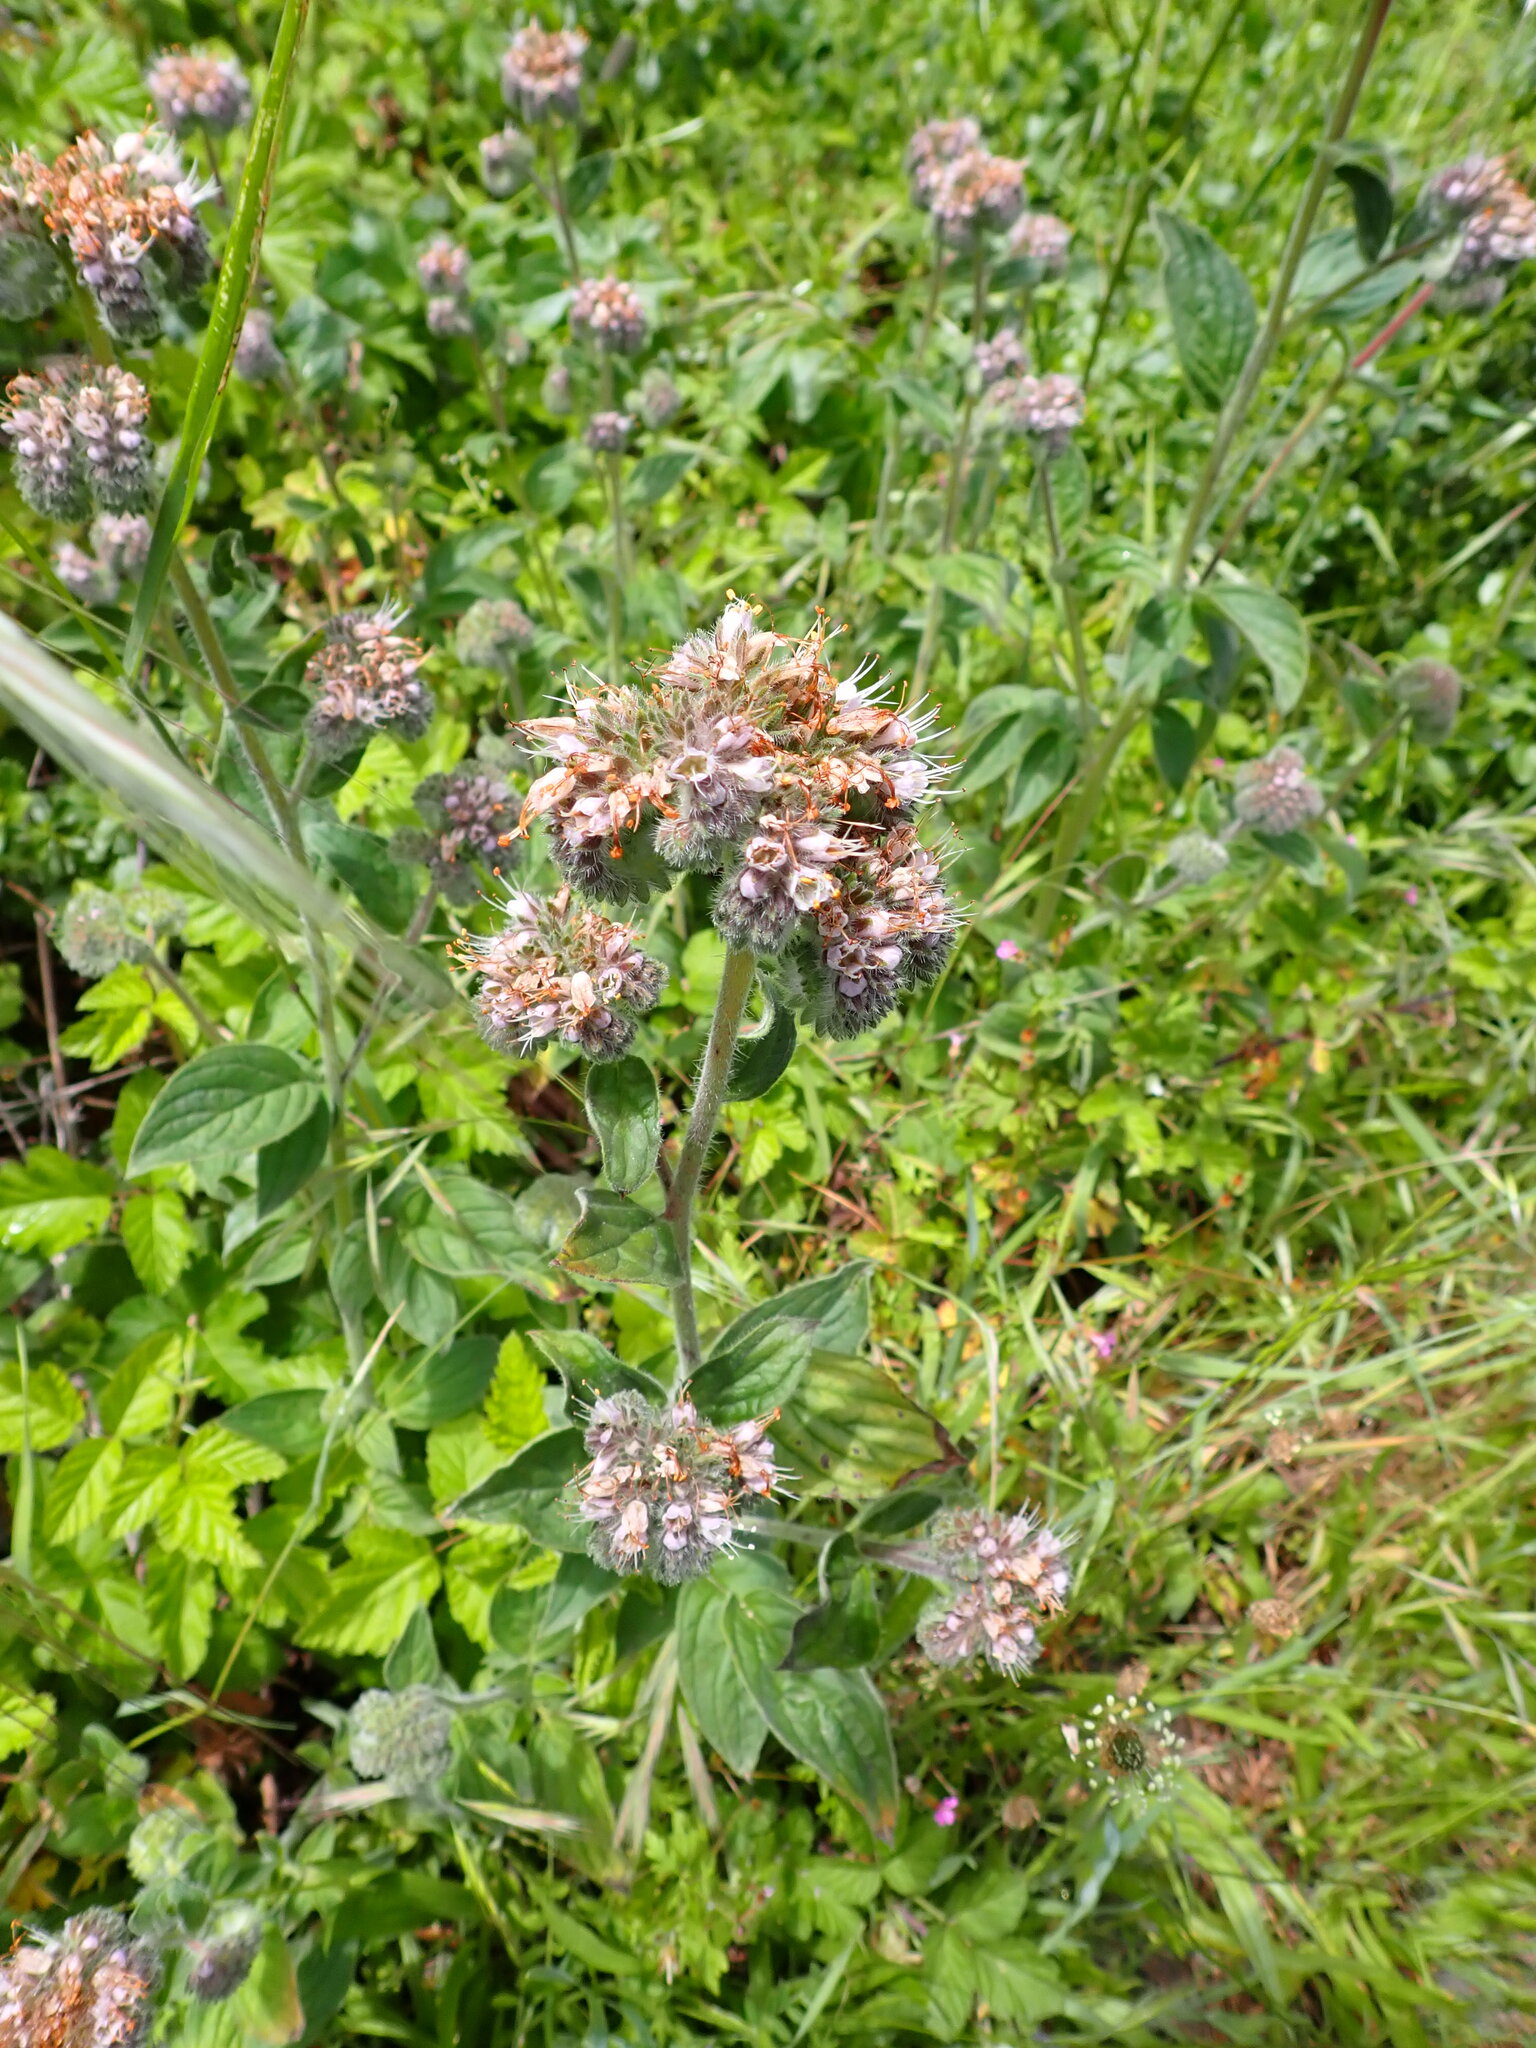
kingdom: Plantae
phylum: Tracheophyta
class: Magnoliopsida
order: Boraginales
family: Hydrophyllaceae
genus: Phacelia
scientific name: Phacelia californica
